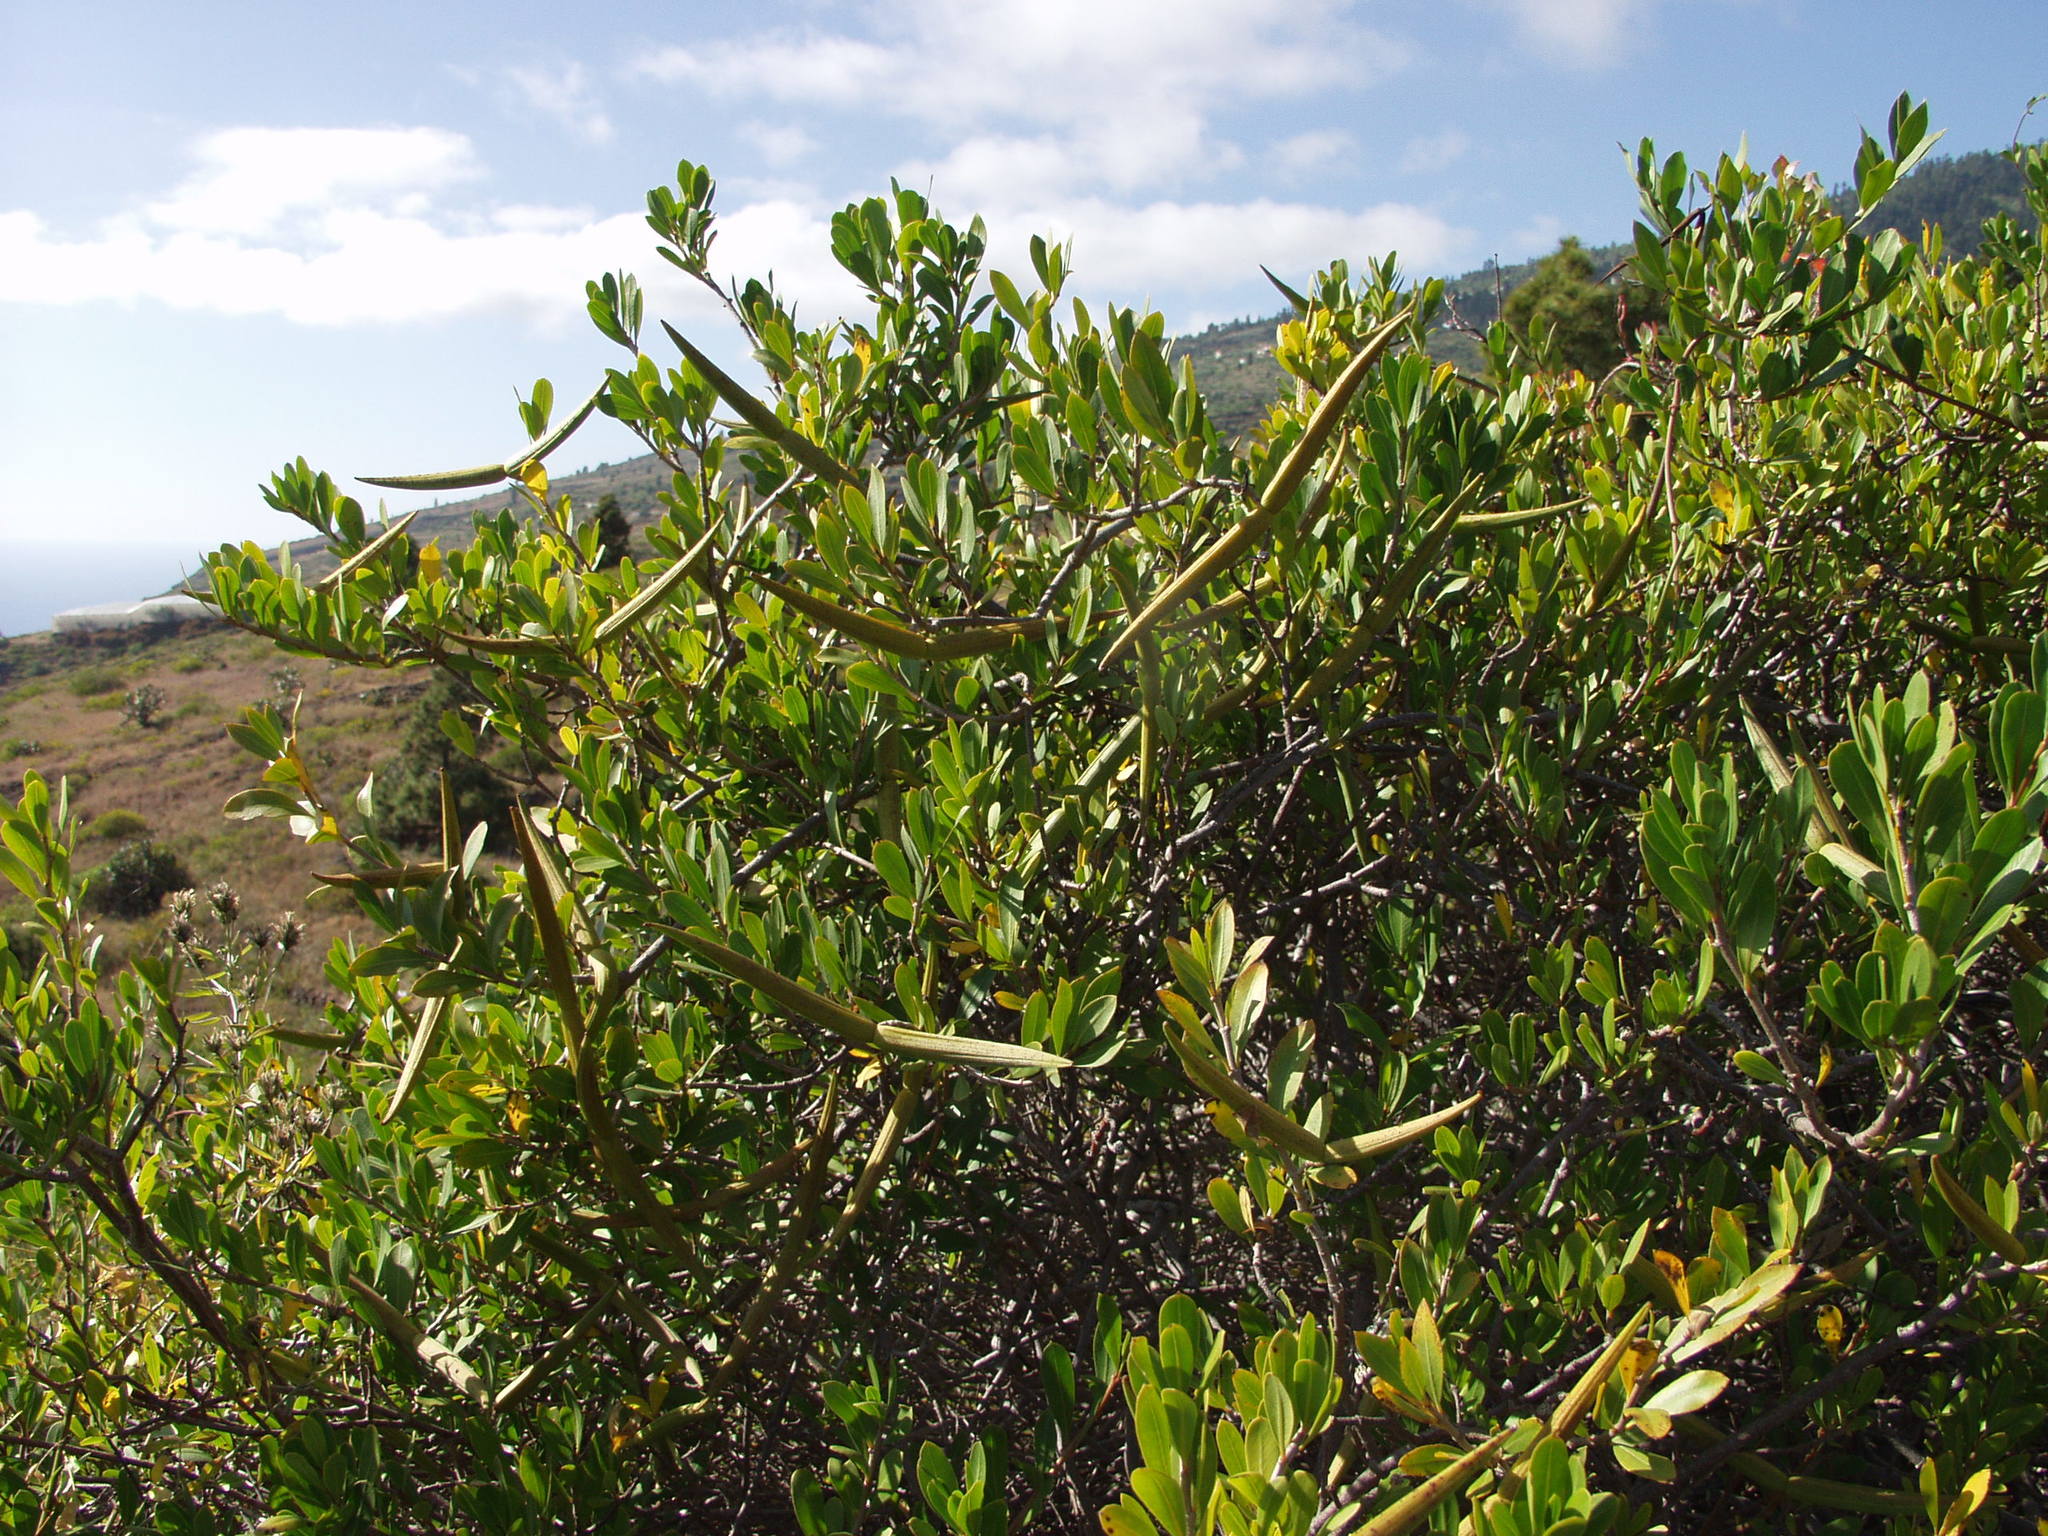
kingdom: Plantae
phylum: Tracheophyta
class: Magnoliopsida
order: Gentianales
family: Apocynaceae
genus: Periploca
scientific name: Periploca laevigata
